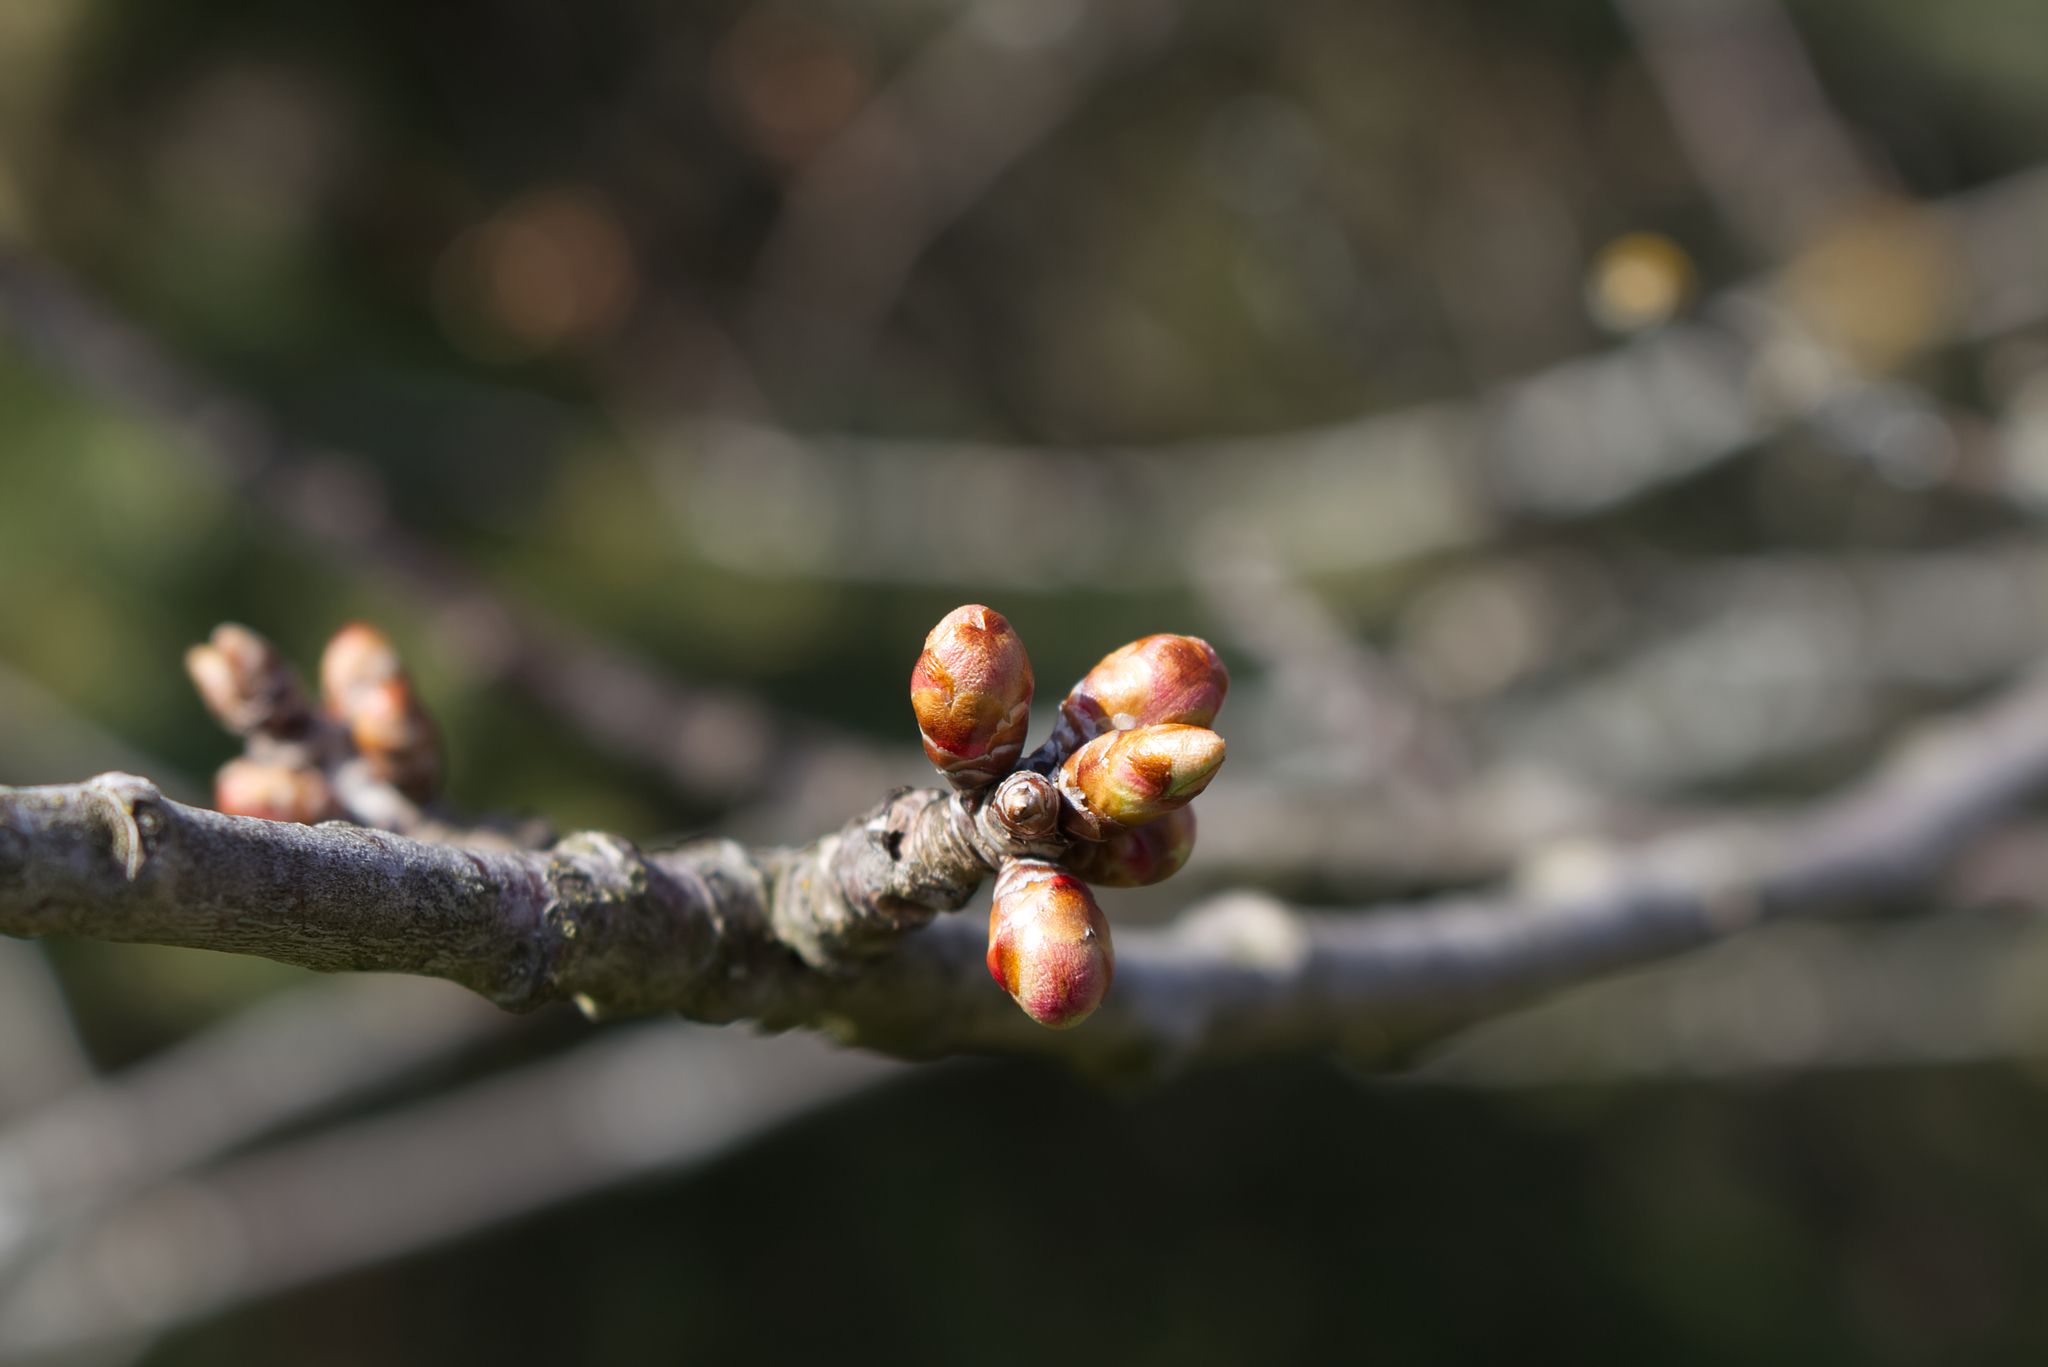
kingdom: Plantae
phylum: Tracheophyta
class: Magnoliopsida
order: Rosales
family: Rosaceae
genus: Prunus
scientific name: Prunus avium
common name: Sweet cherry
